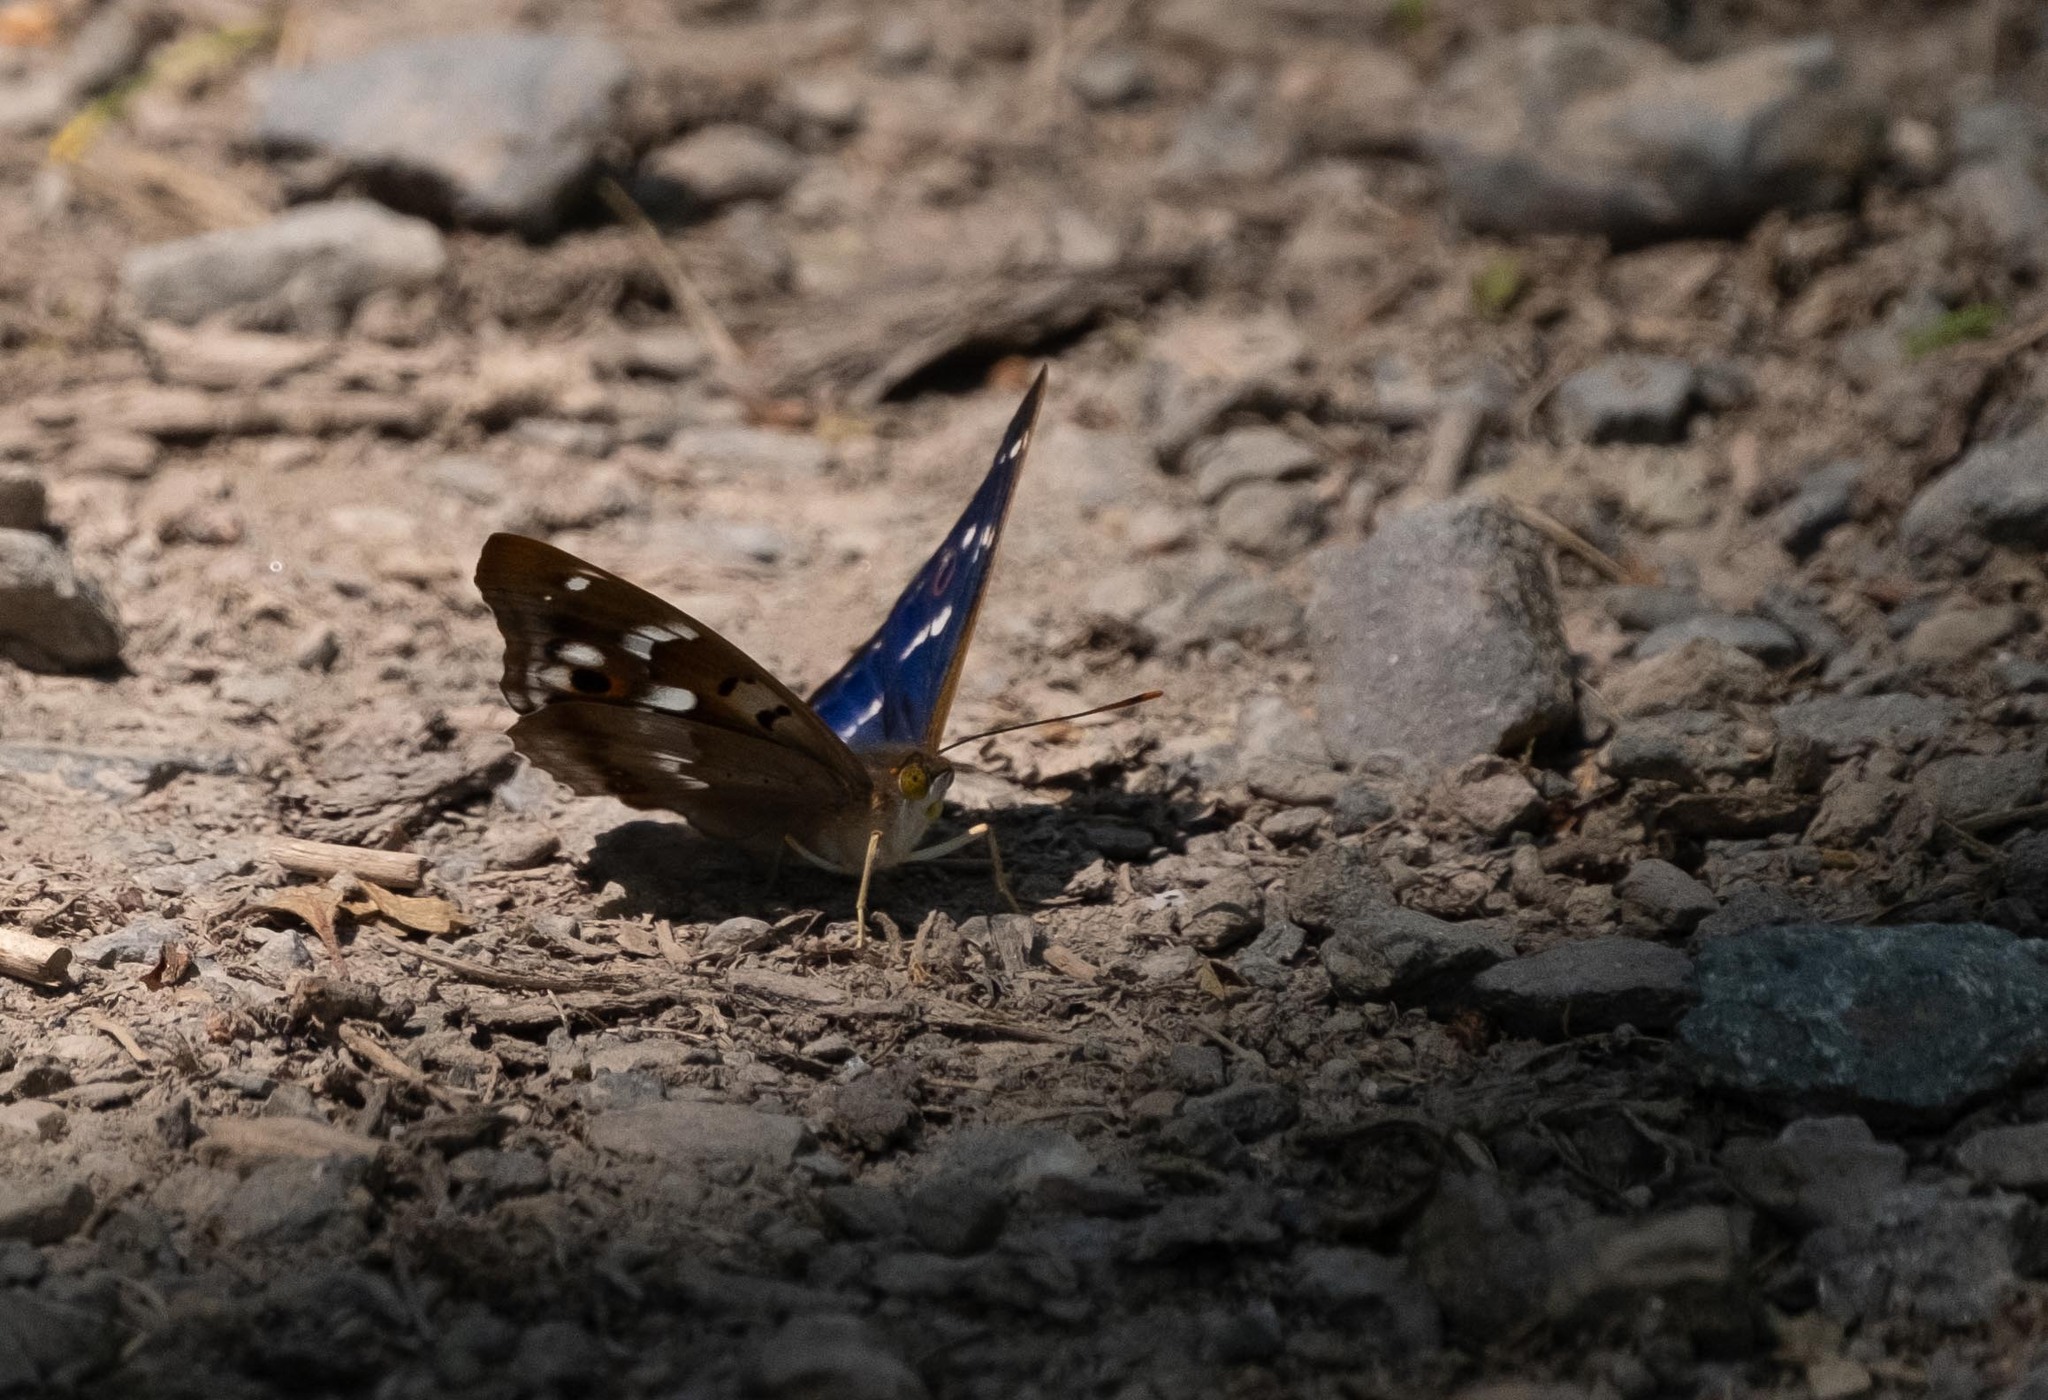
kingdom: Animalia
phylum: Arthropoda
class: Insecta
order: Lepidoptera
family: Nymphalidae
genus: Apatura
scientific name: Apatura ilia
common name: Lesser purple emperor
